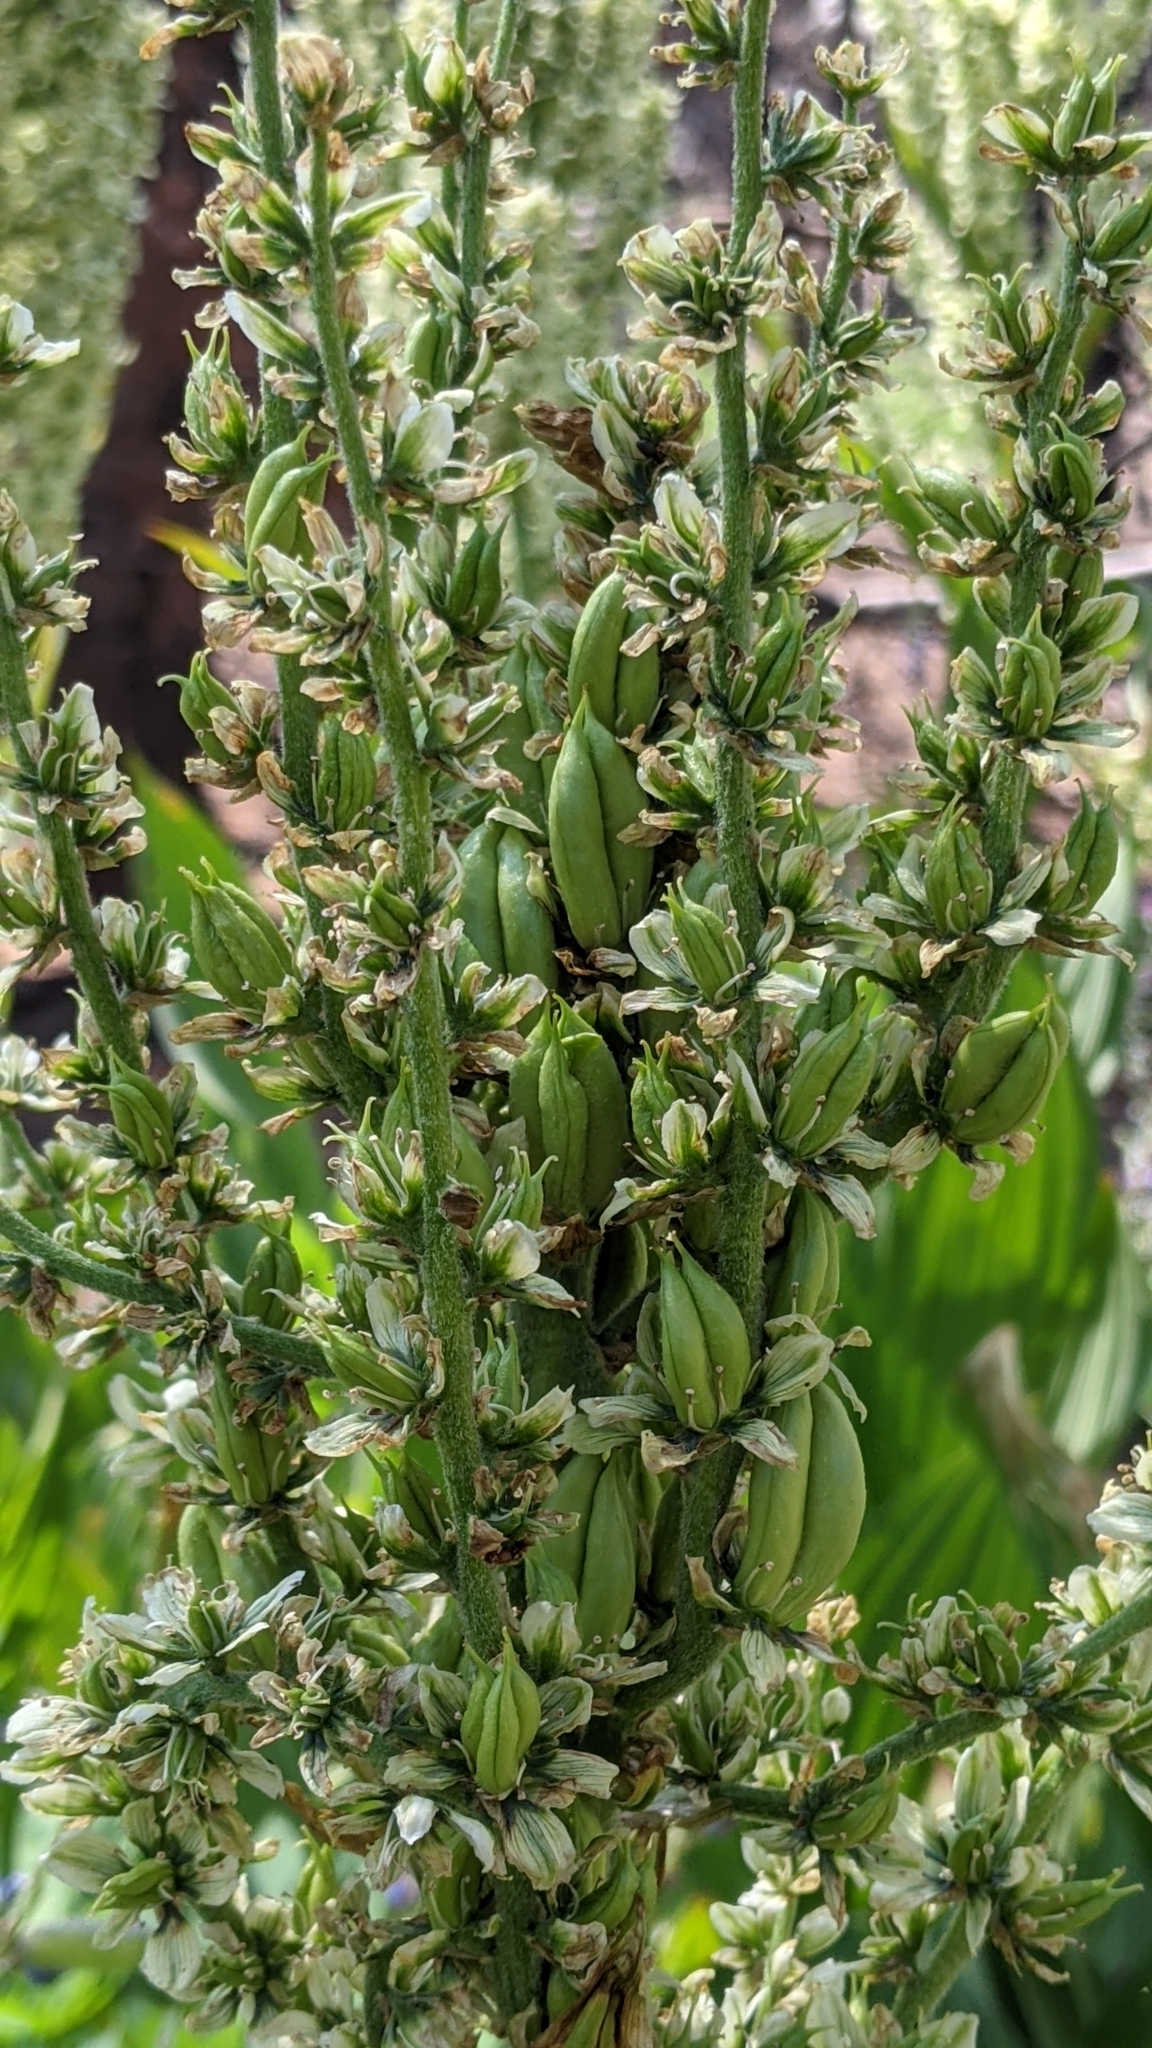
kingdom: Plantae
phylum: Tracheophyta
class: Liliopsida
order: Liliales
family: Melanthiaceae
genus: Veratrum
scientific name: Veratrum californicum
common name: California veratrum
